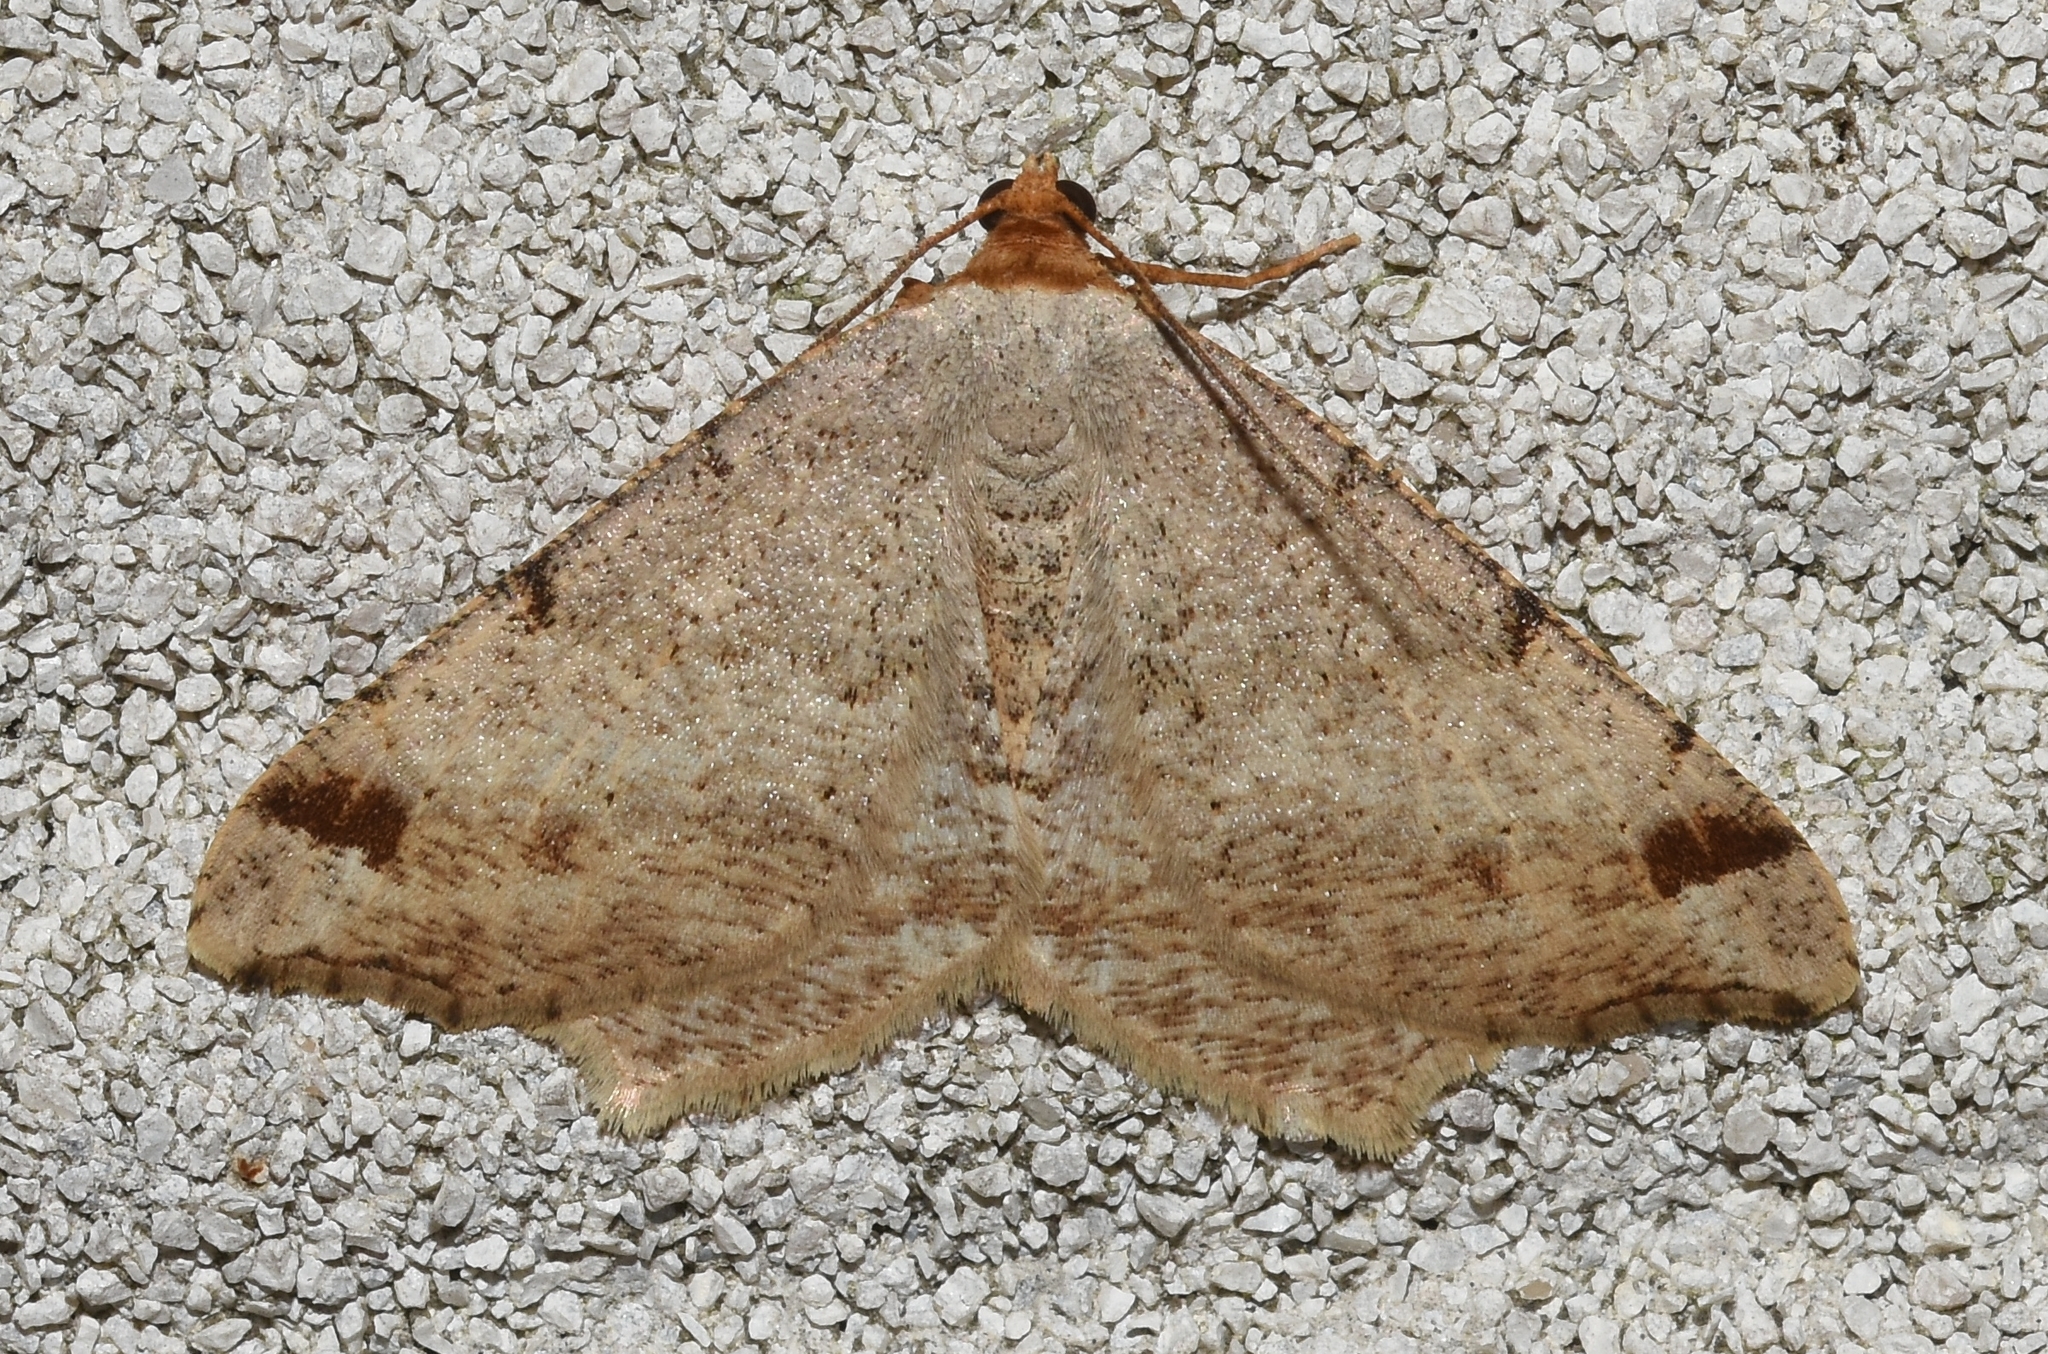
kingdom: Animalia
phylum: Arthropoda
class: Insecta
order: Lepidoptera
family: Geometridae
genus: Macaria
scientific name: Macaria bisignata
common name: Red-headed inchworm
